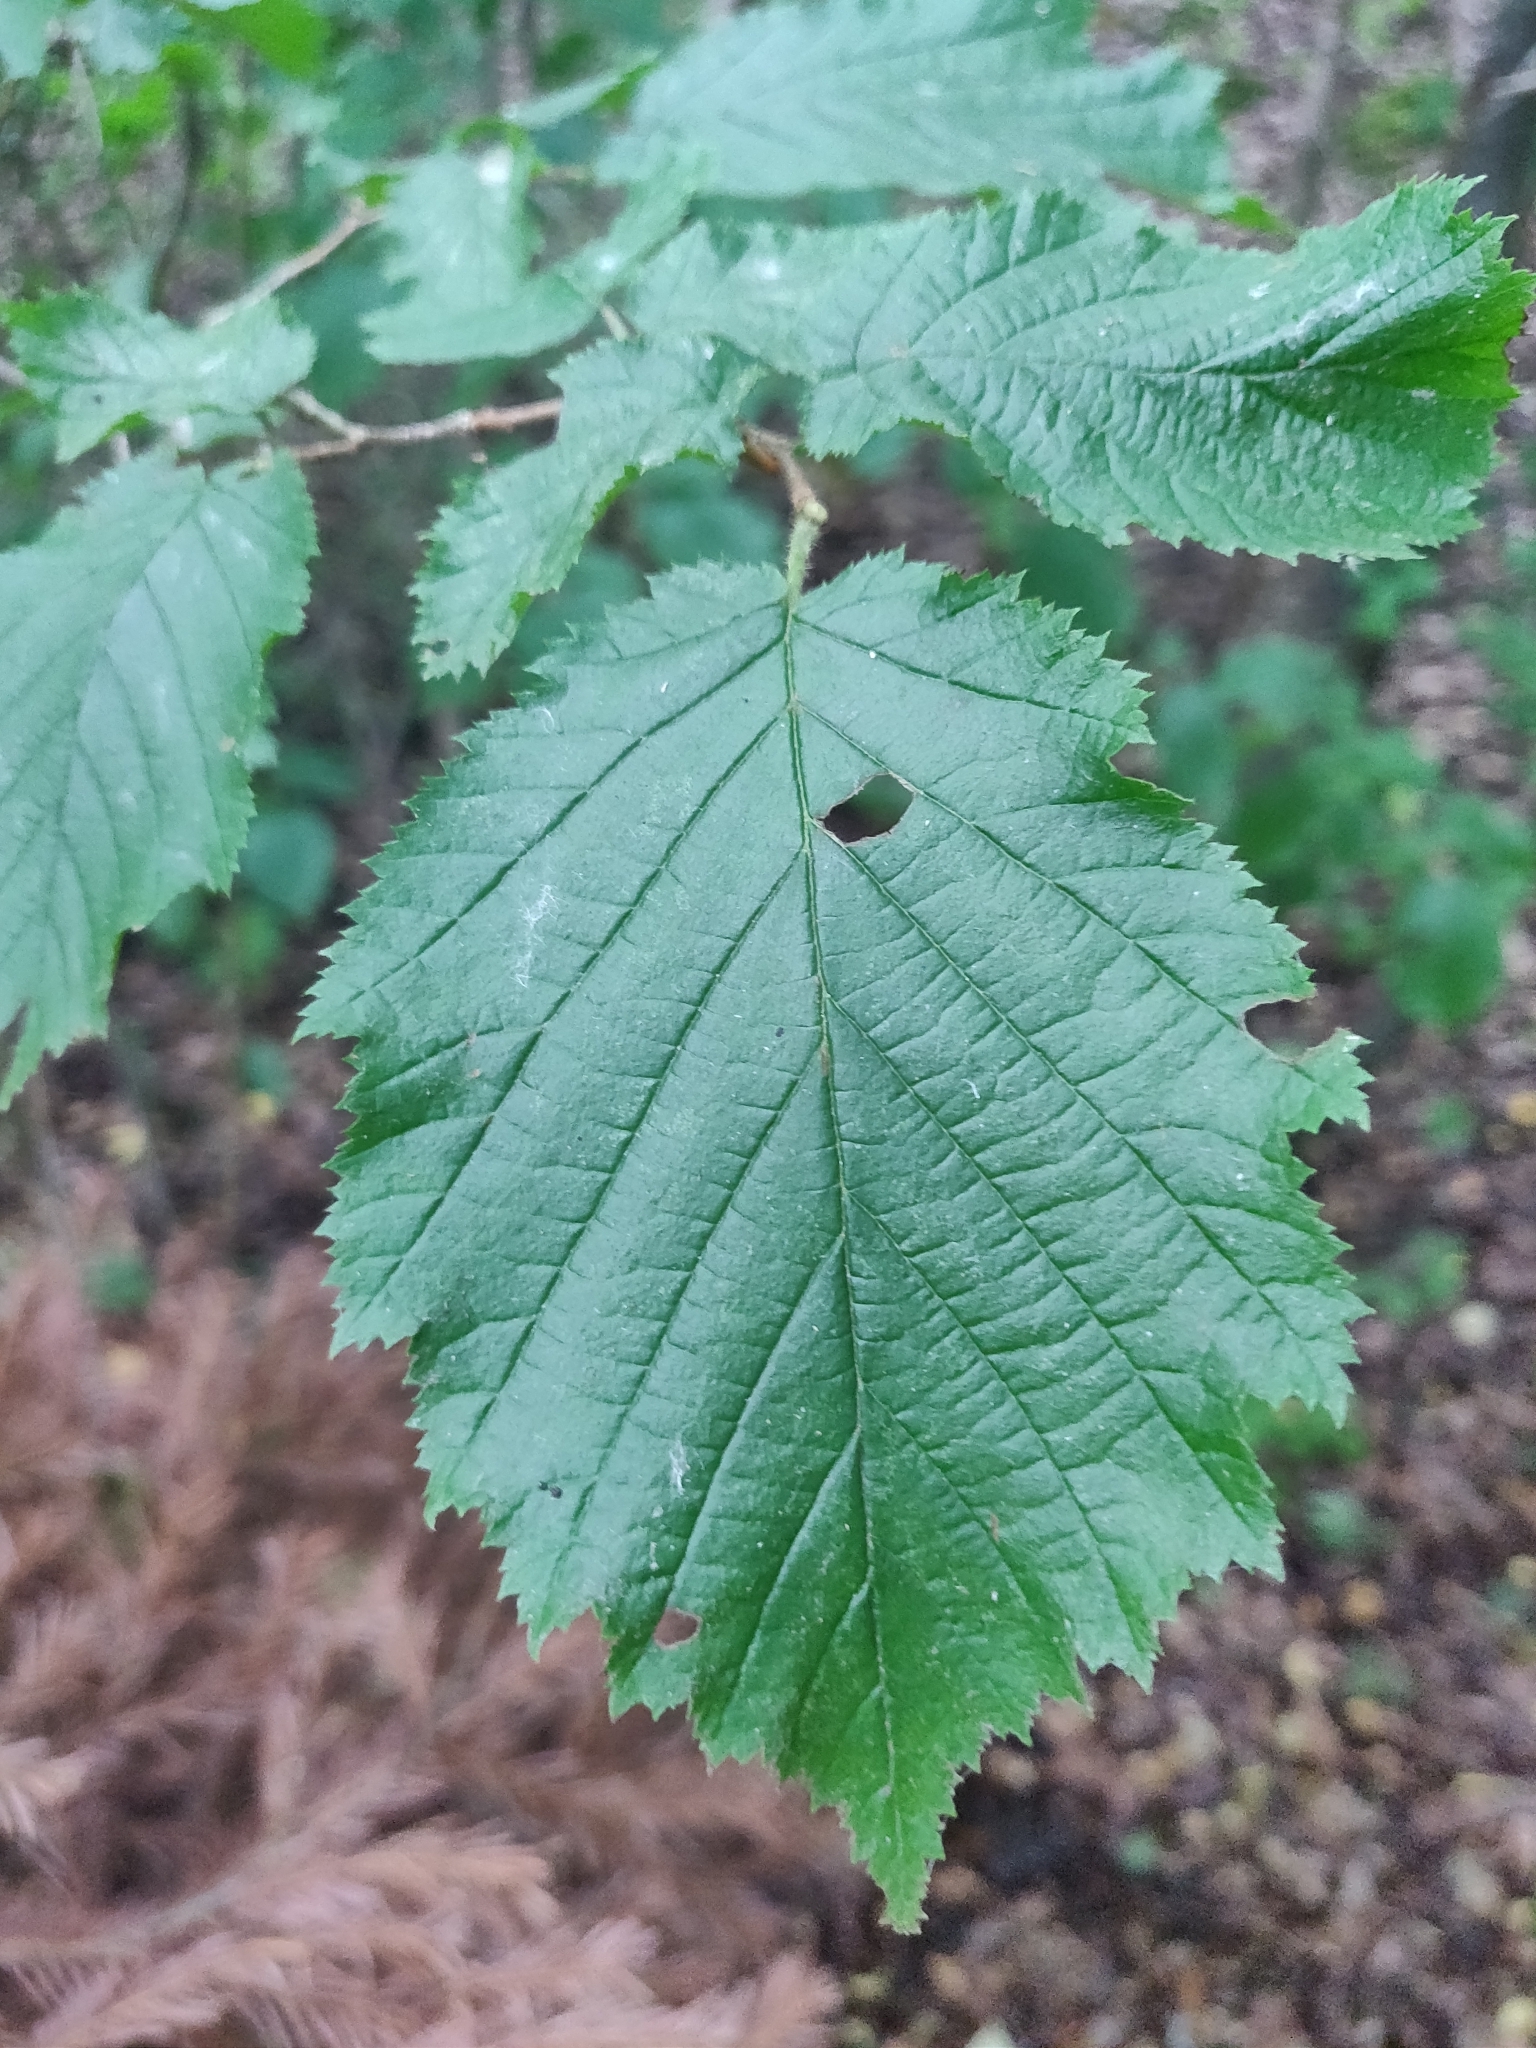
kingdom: Plantae
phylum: Tracheophyta
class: Magnoliopsida
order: Fagales
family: Betulaceae
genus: Corylus
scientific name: Corylus avellana
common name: European hazel
